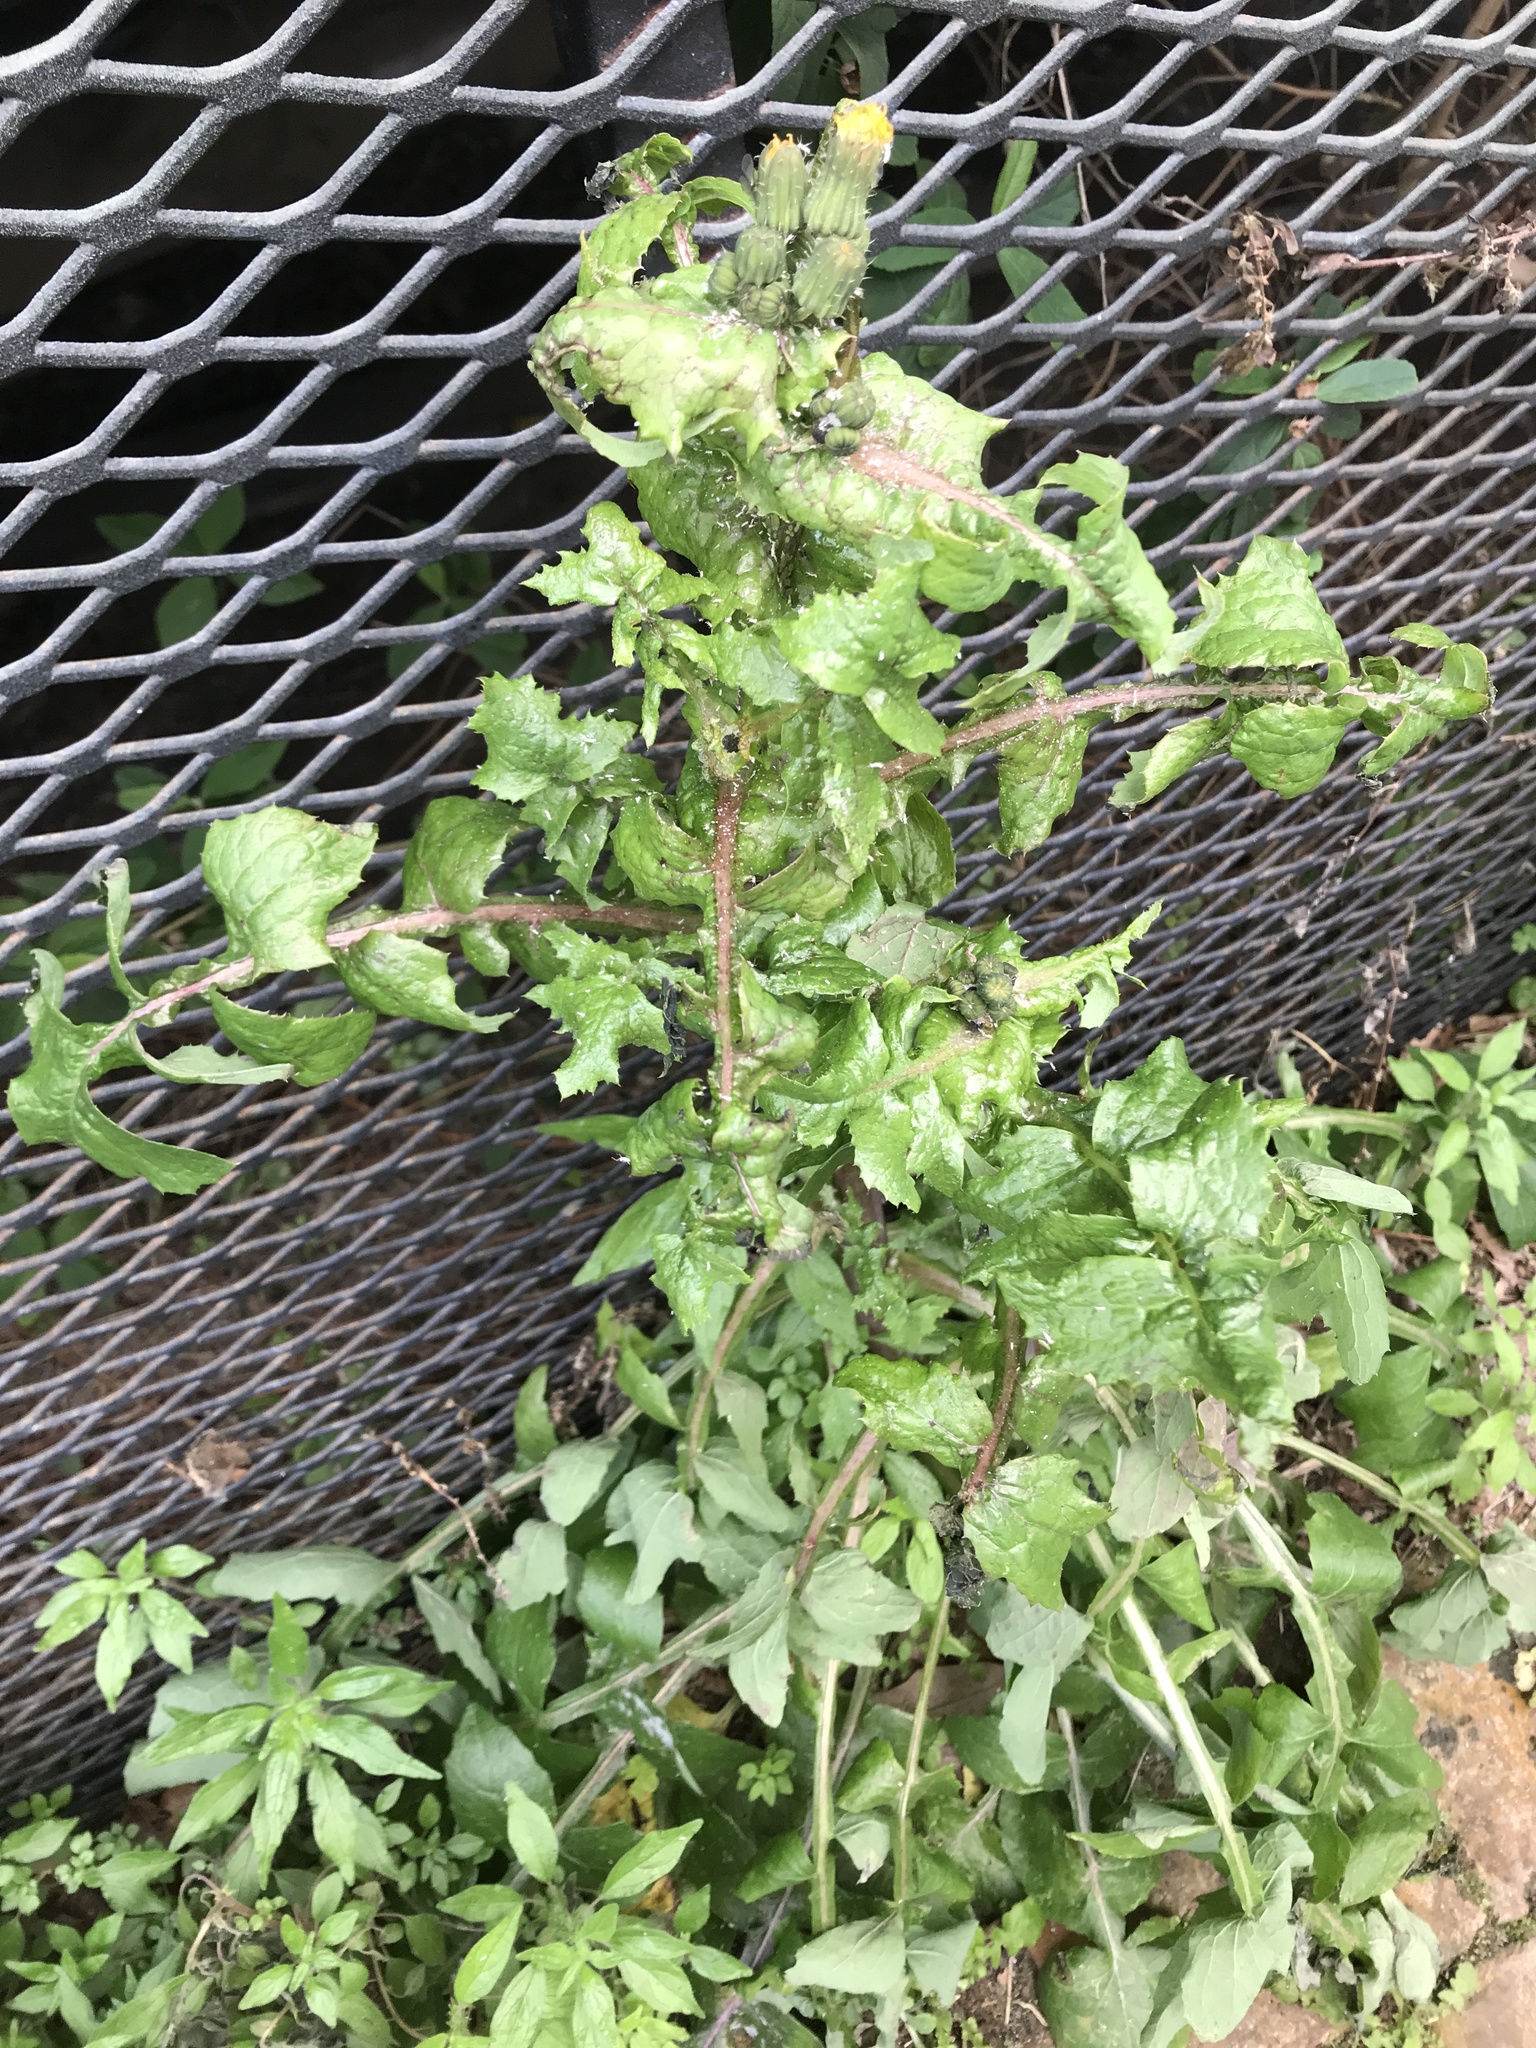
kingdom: Plantae
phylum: Tracheophyta
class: Magnoliopsida
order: Asterales
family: Asteraceae
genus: Sonchus
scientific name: Sonchus oleraceus
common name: Common sowthistle
